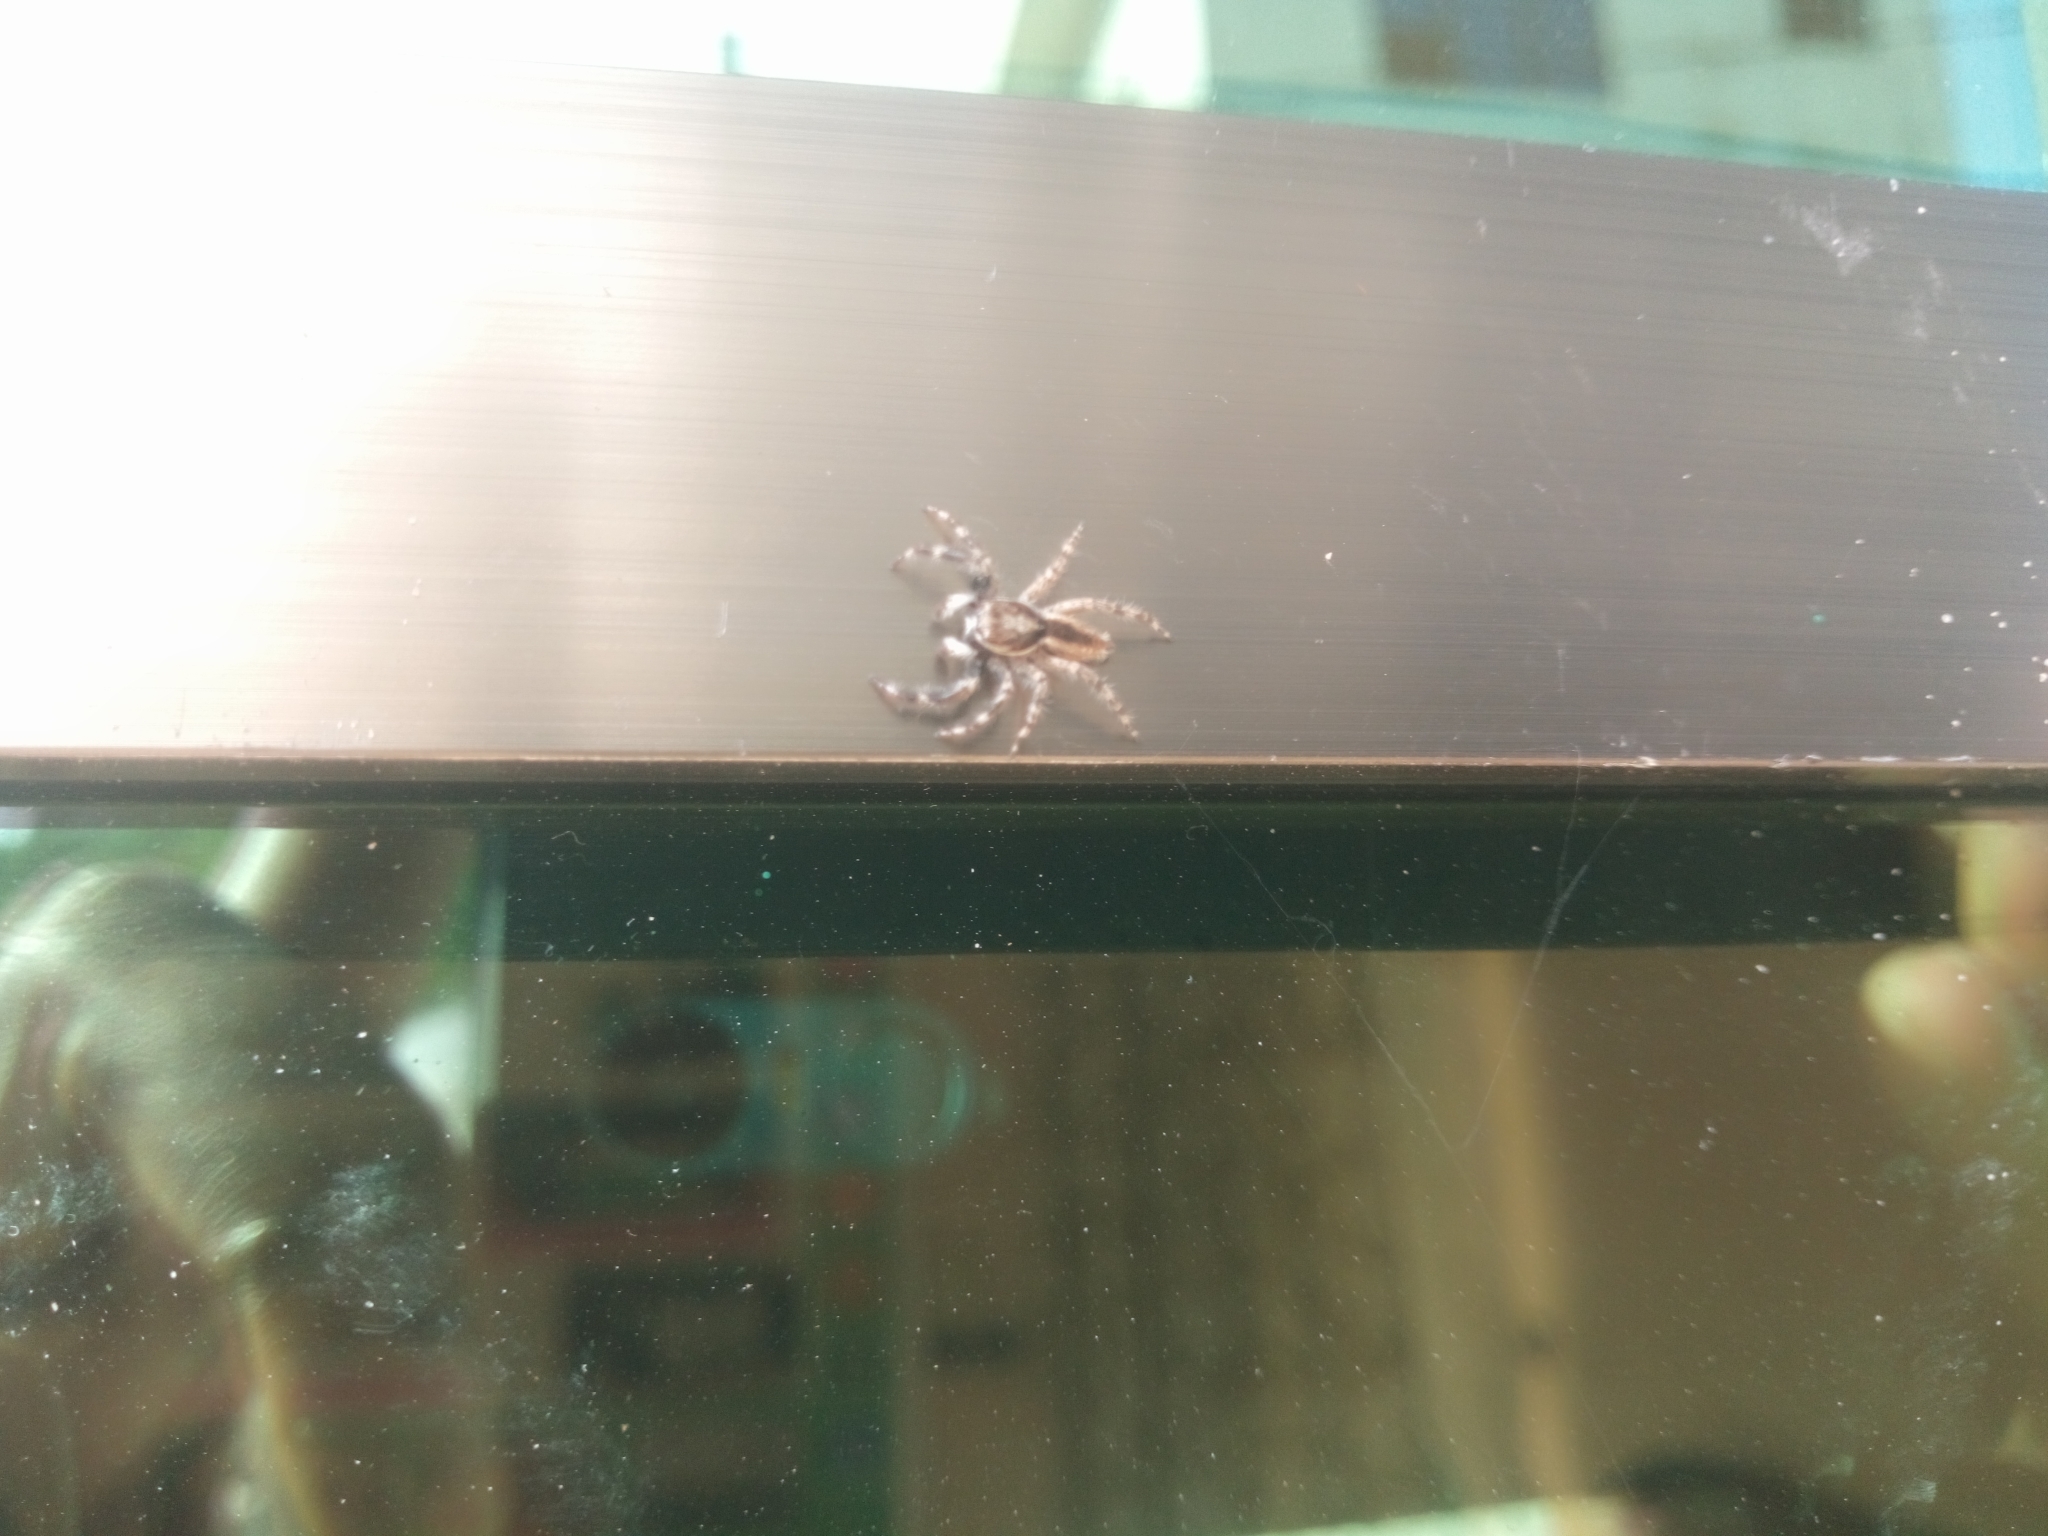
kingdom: Animalia
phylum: Arthropoda
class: Arachnida
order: Araneae
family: Salticidae
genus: Menemerus
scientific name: Menemerus bivittatus
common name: Gray wall jumper
